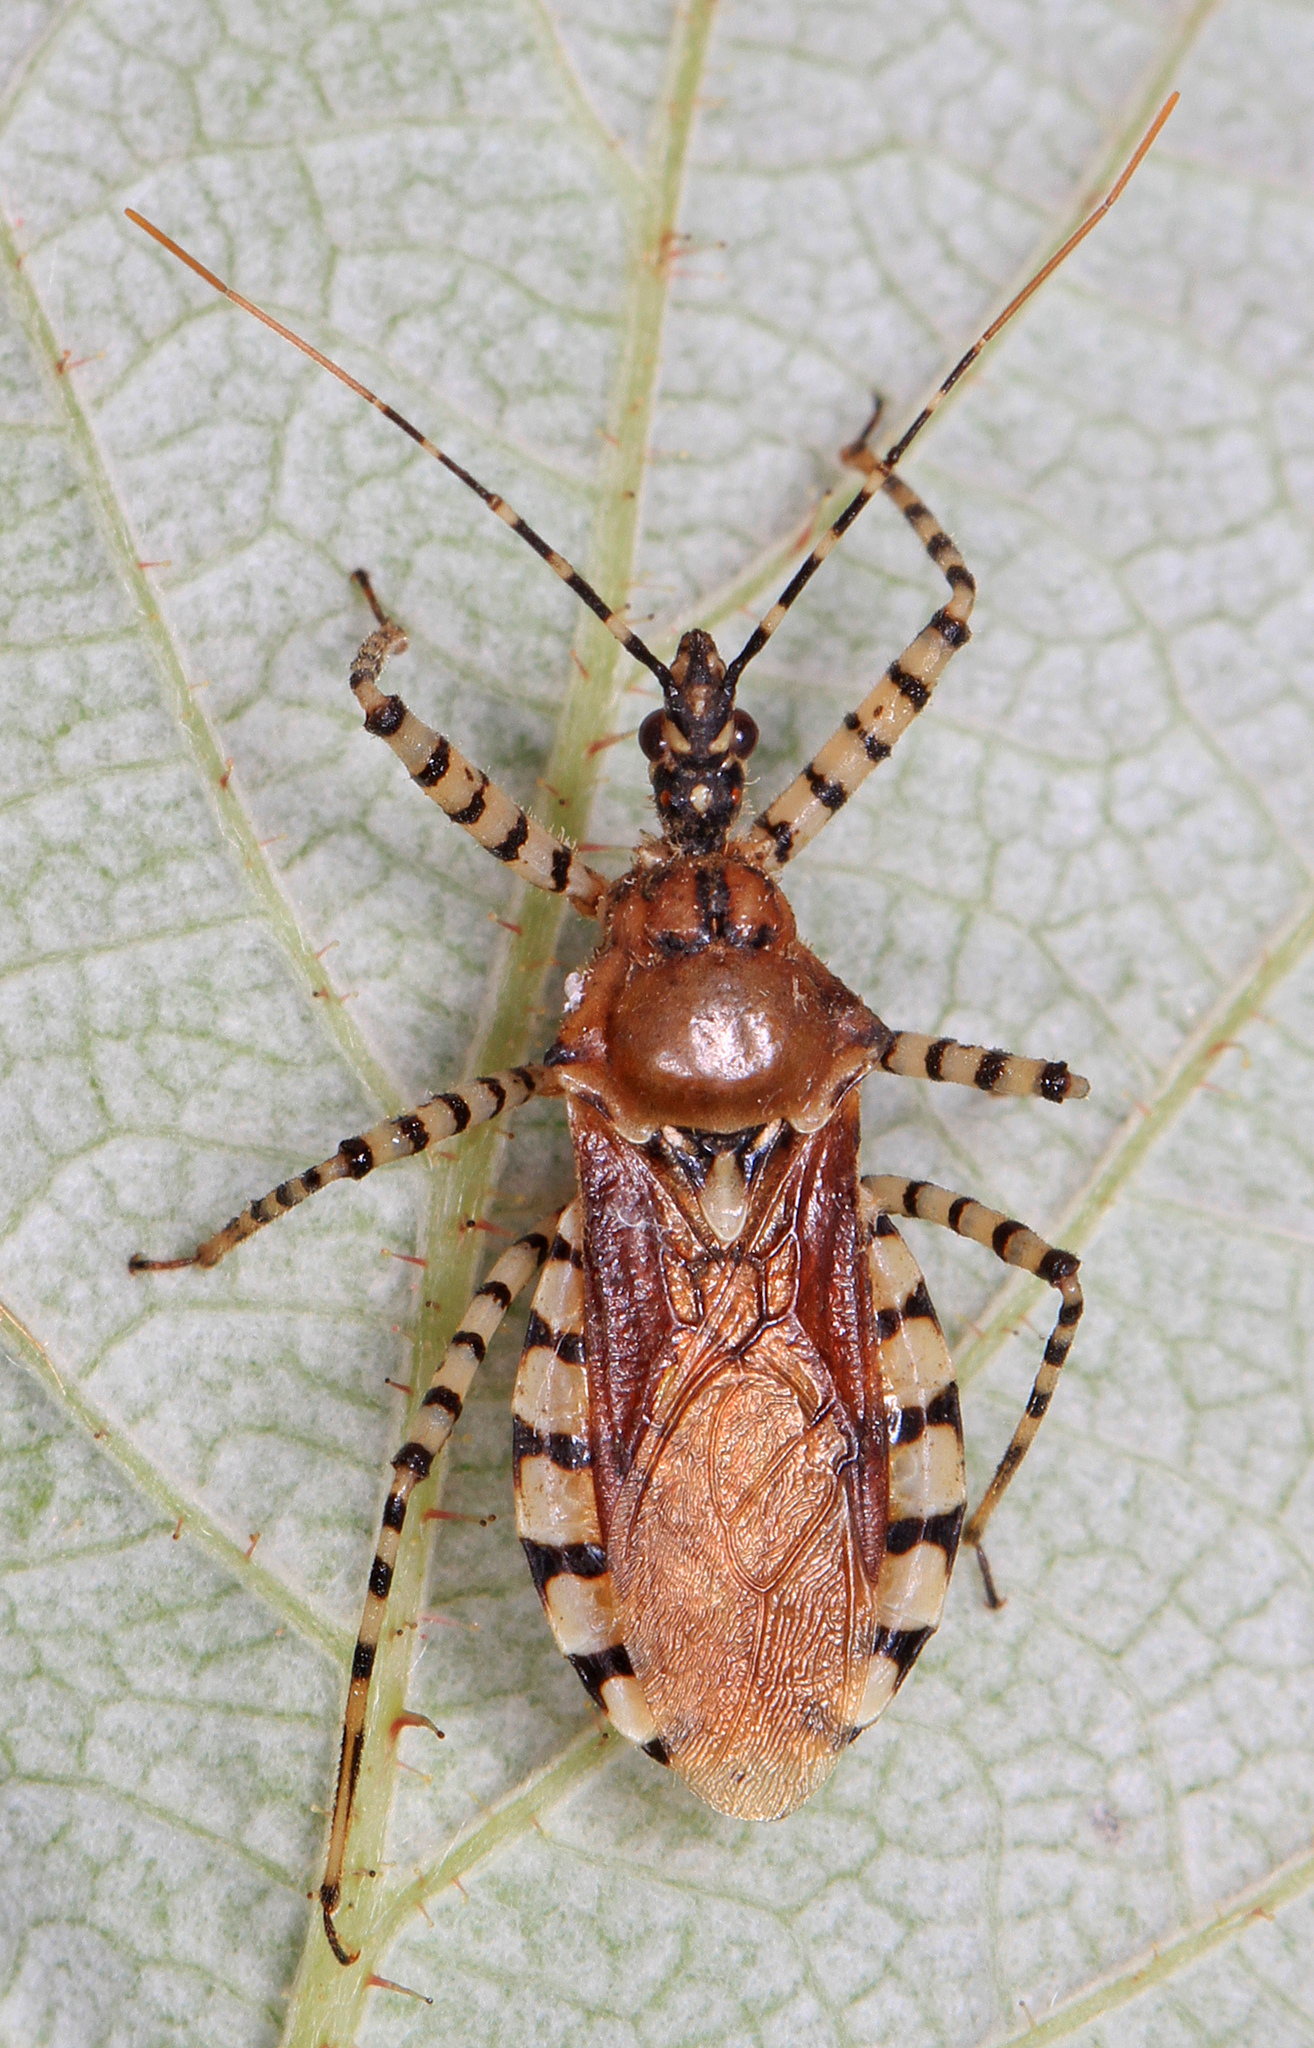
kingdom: Animalia
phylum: Arthropoda
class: Insecta
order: Hemiptera
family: Reduviidae
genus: Pselliopus
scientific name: Pselliopus cinctus
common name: Ringed assassin bug
